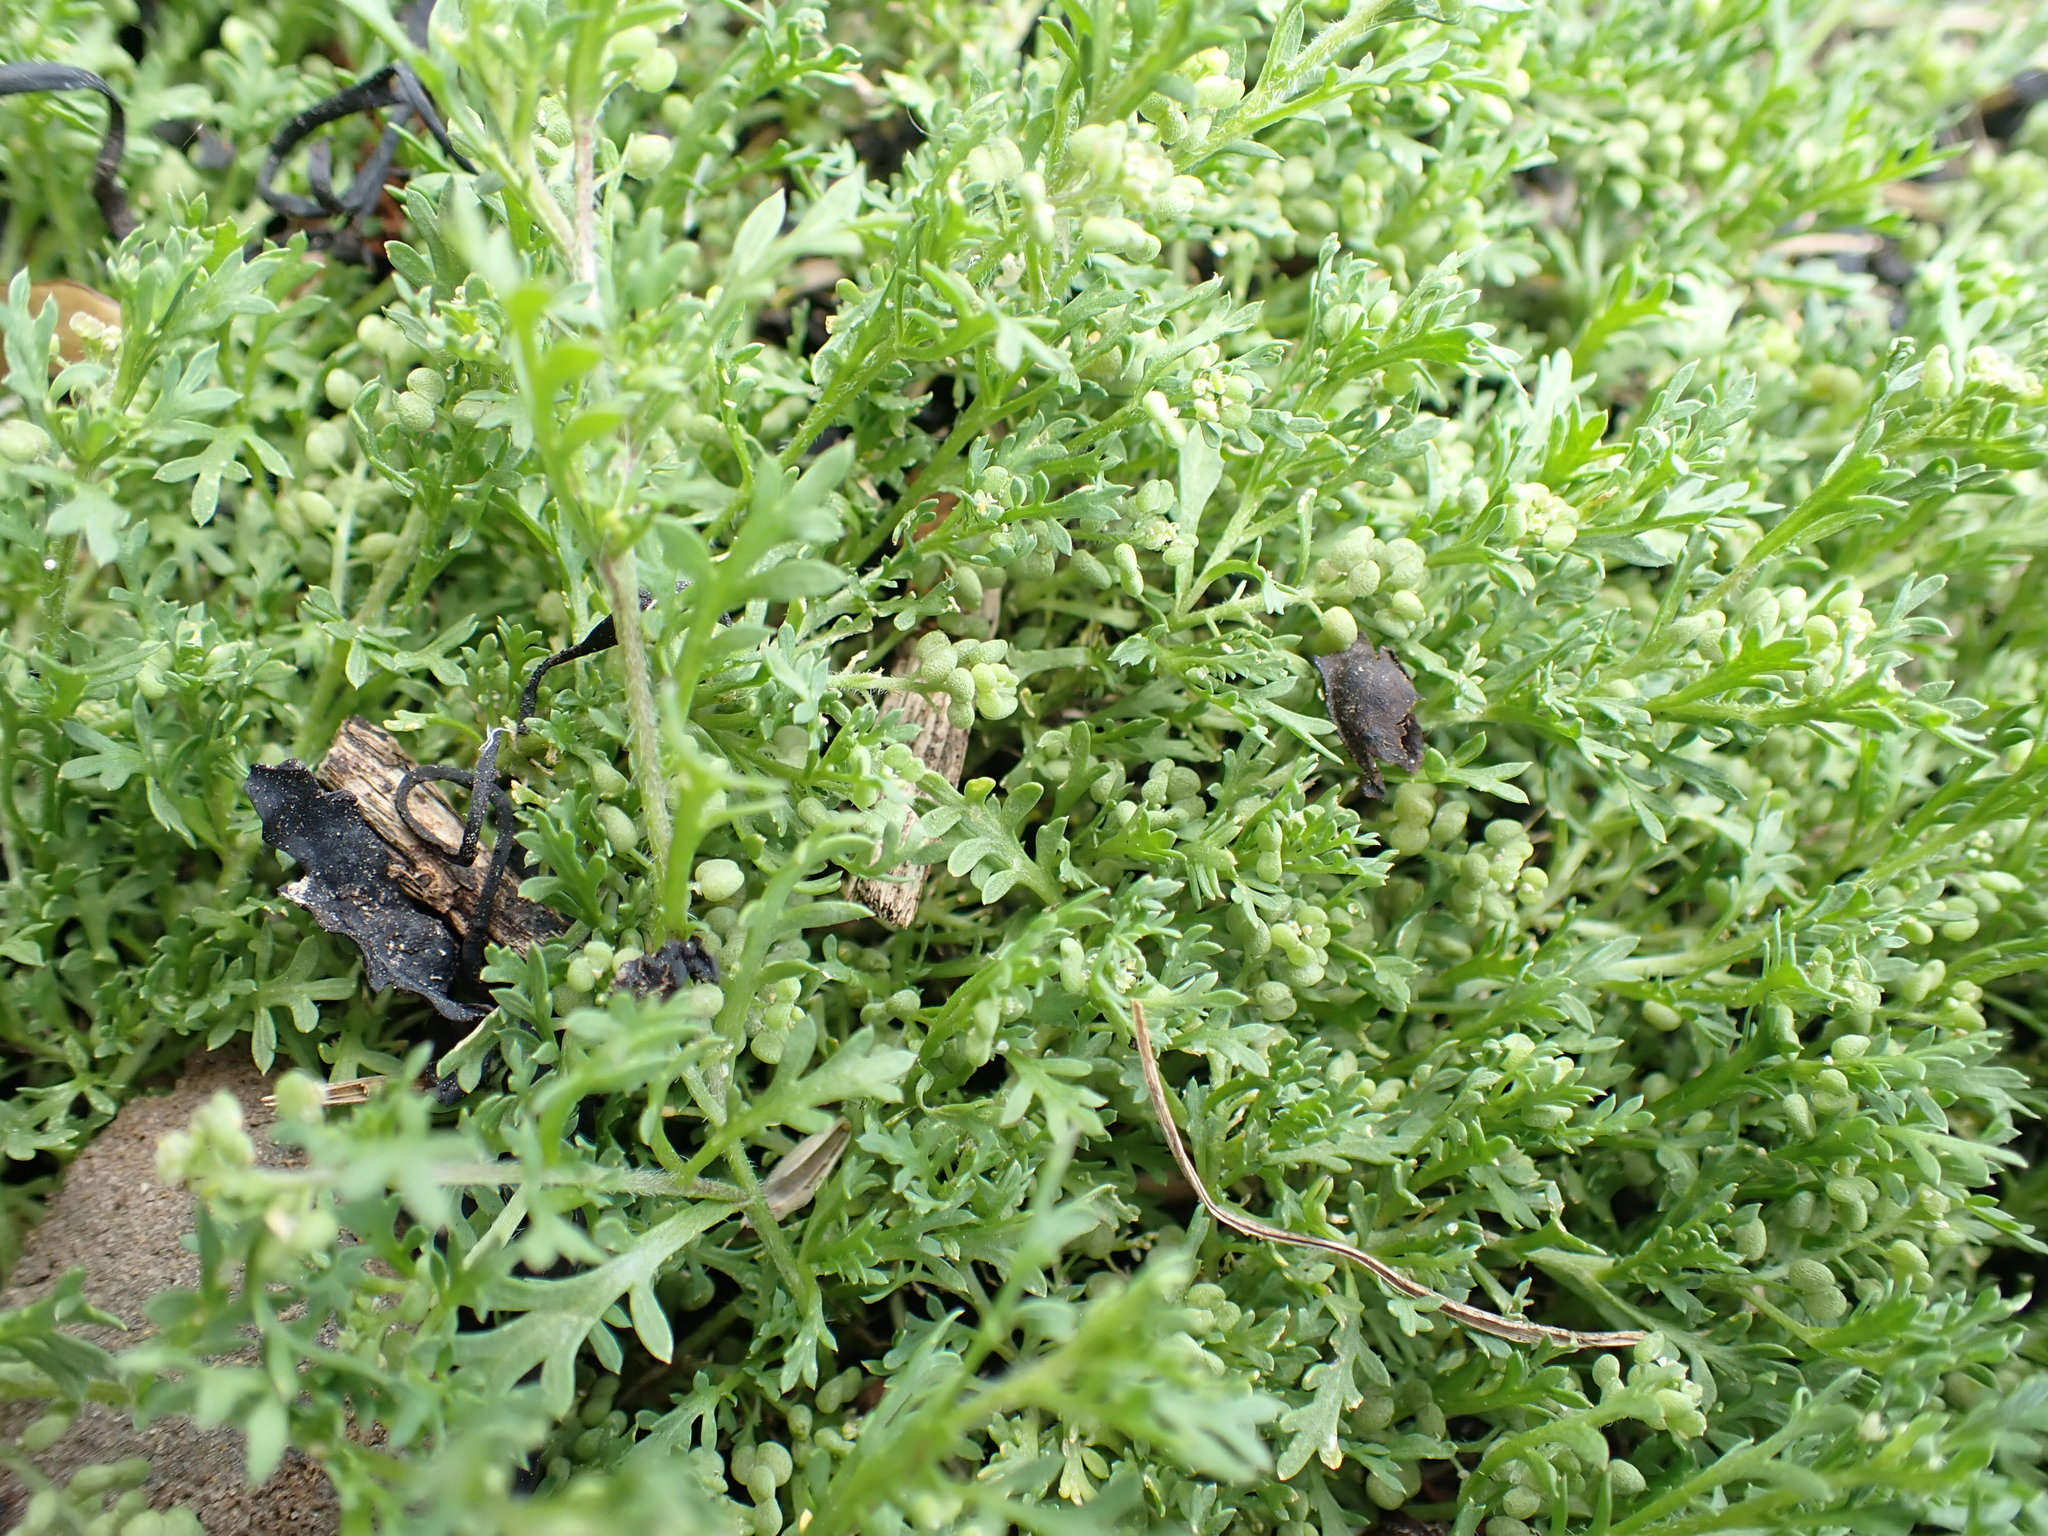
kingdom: Plantae
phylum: Tracheophyta
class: Magnoliopsida
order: Brassicales
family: Brassicaceae
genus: Lepidium
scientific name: Lepidium didymum
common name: Lesser swinecress
